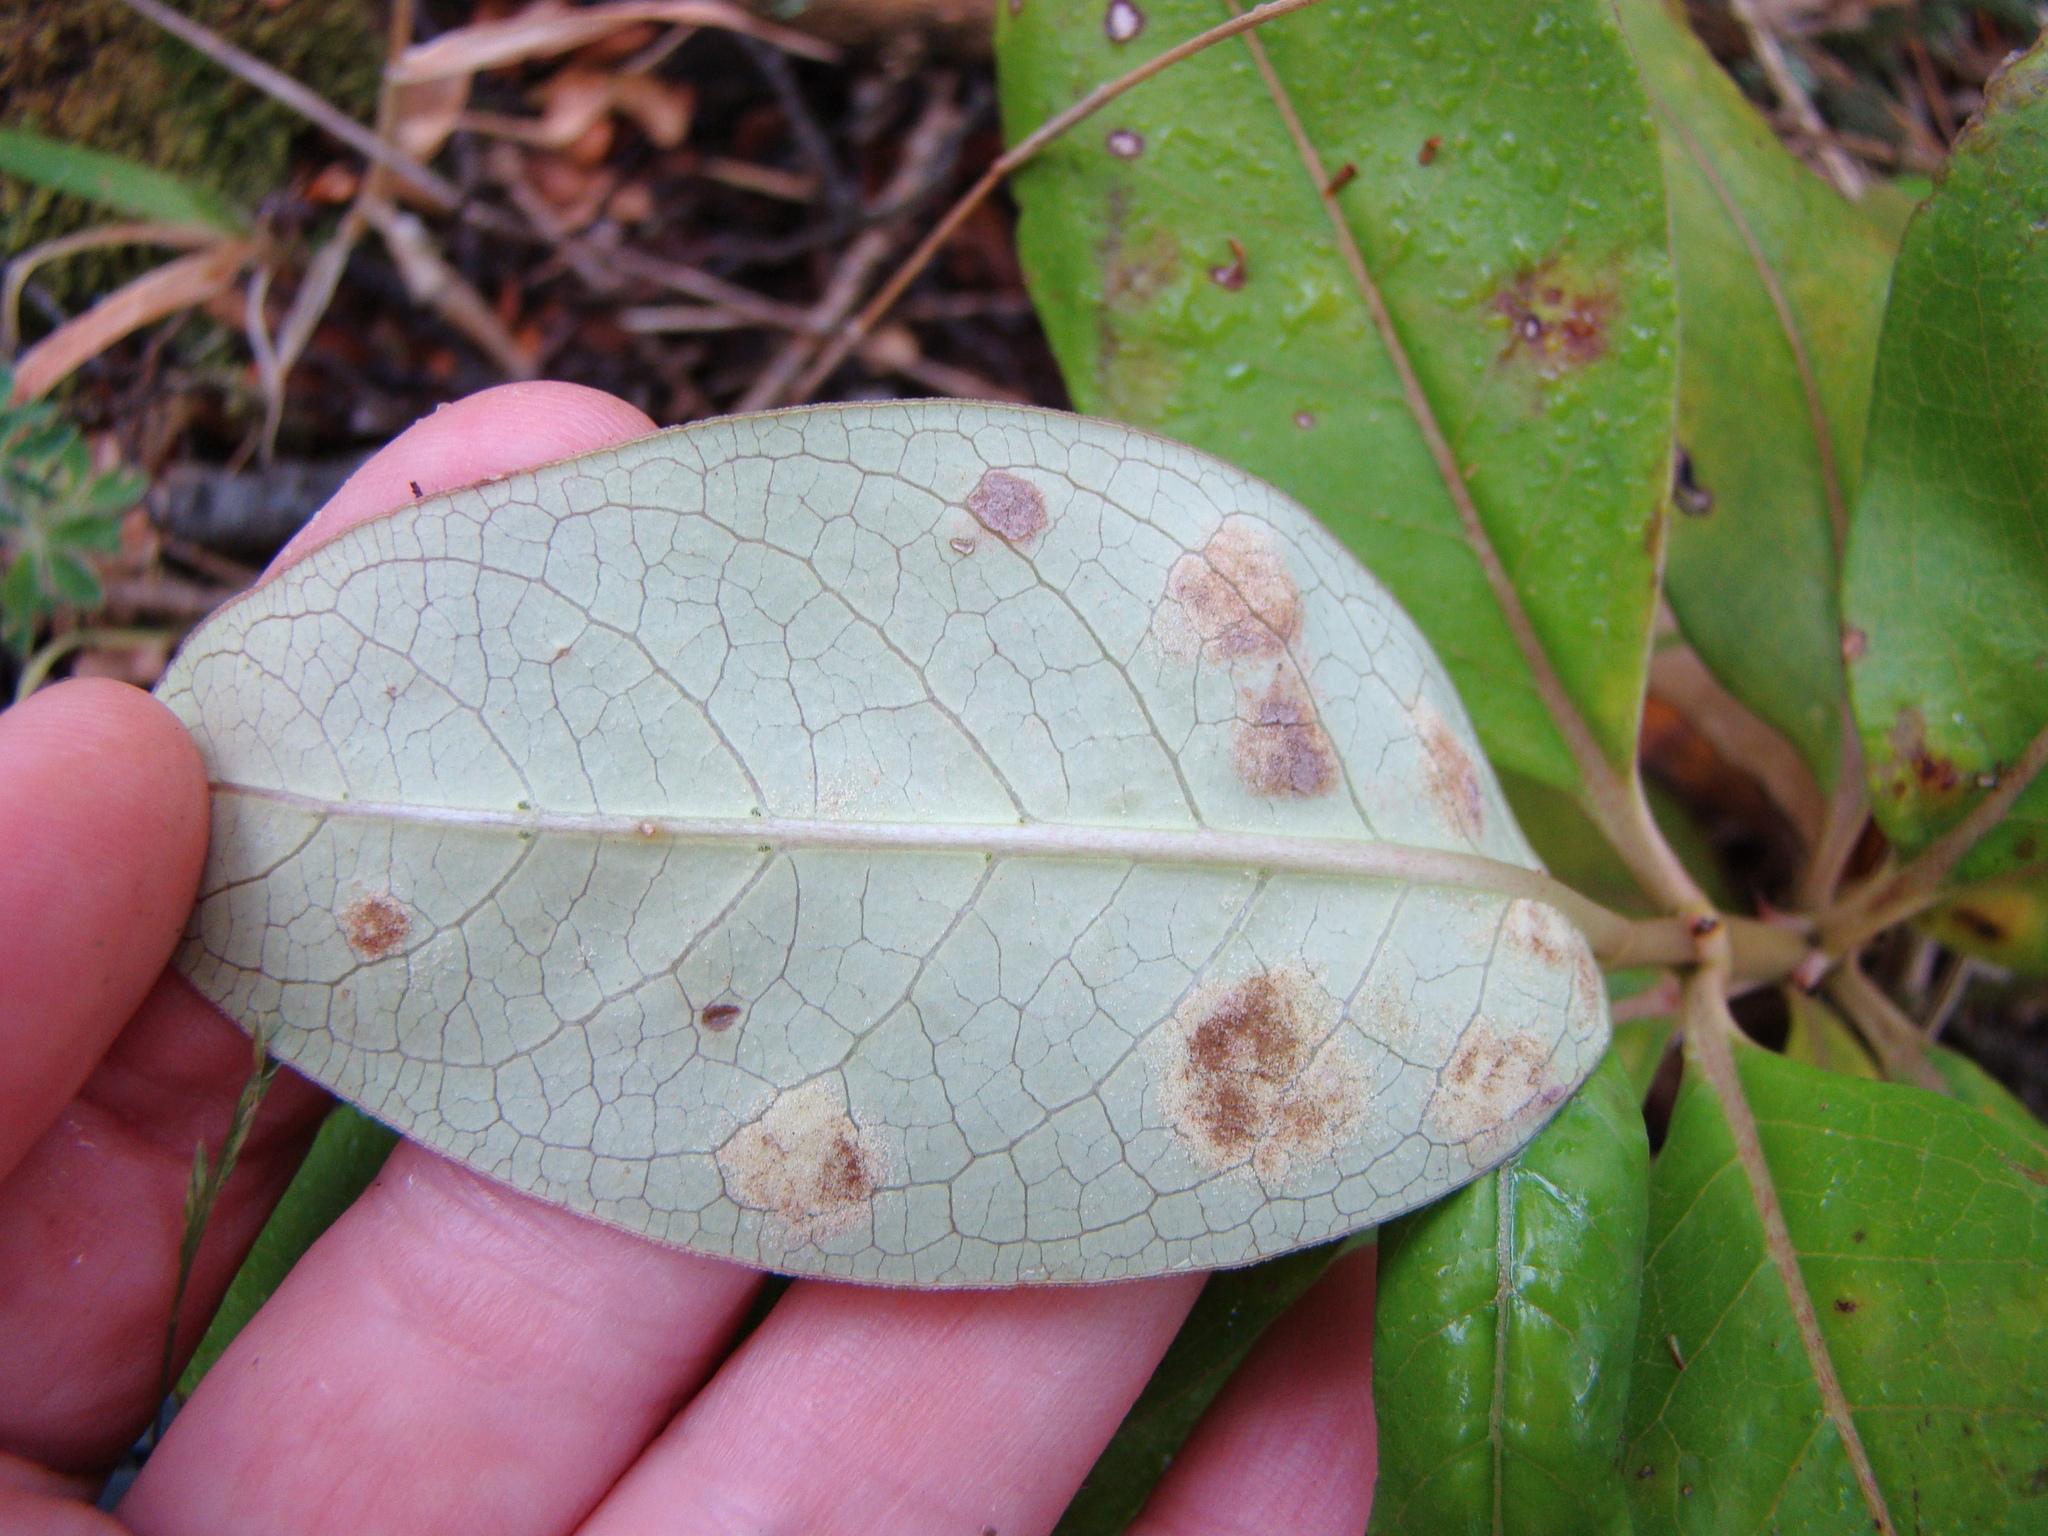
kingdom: Plantae
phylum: Tracheophyta
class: Magnoliopsida
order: Gentianales
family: Rubiaceae
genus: Coprosma
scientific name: Coprosma robusta
